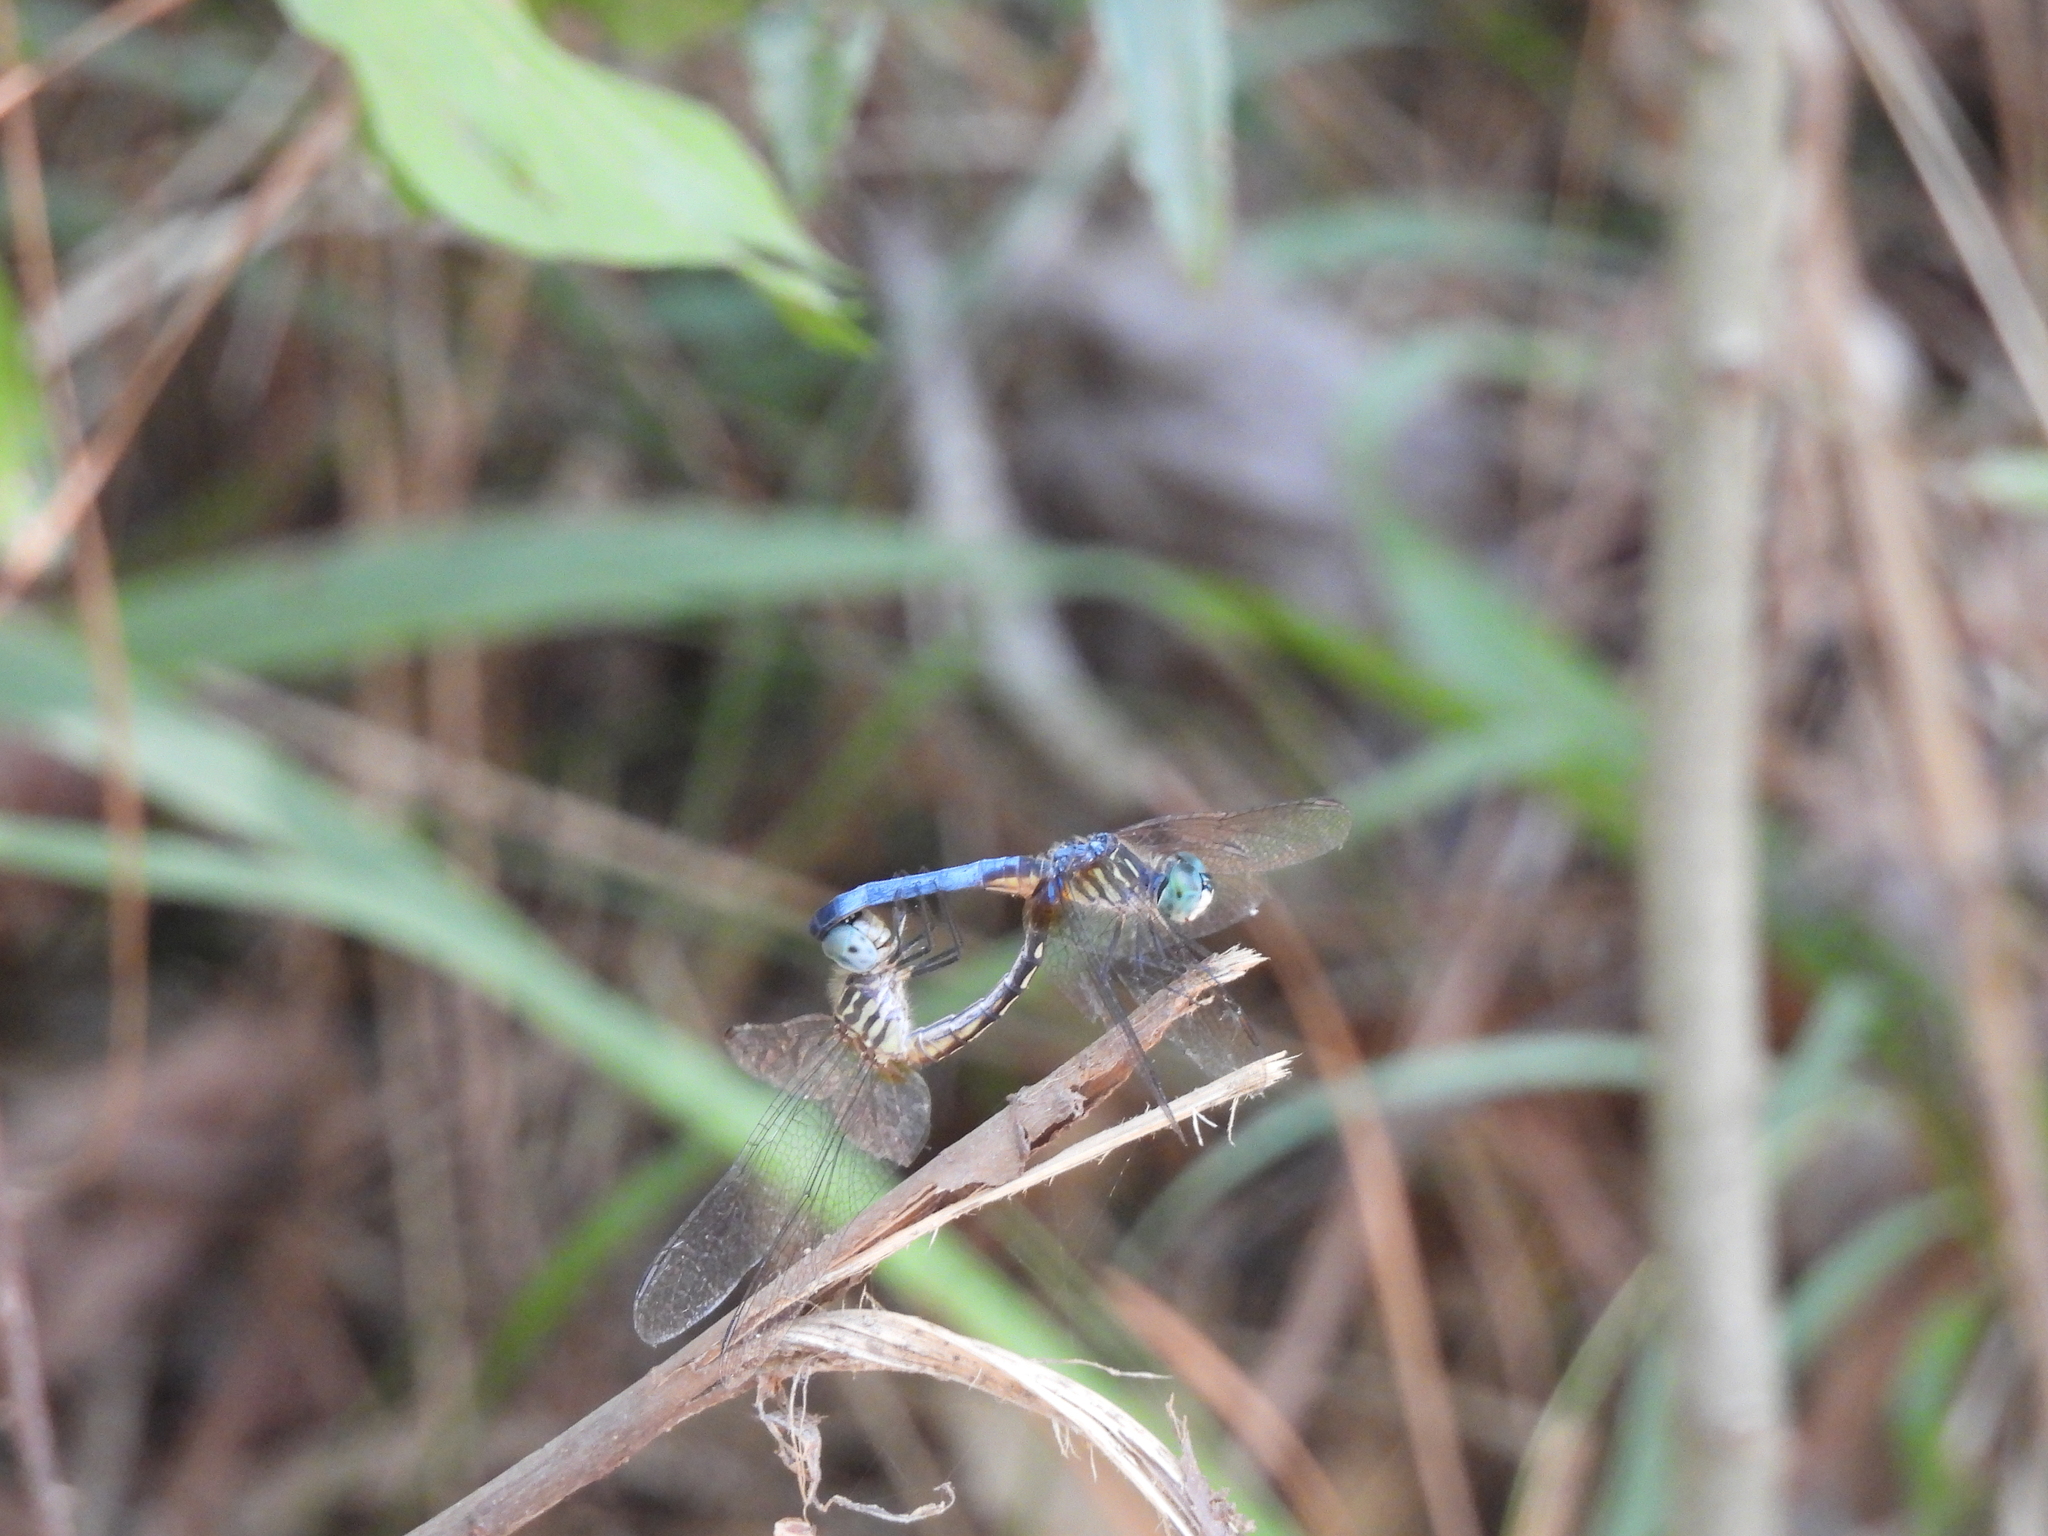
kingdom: Animalia
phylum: Arthropoda
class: Insecta
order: Odonata
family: Libellulidae
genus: Pachydiplax
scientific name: Pachydiplax longipennis
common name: Blue dasher
